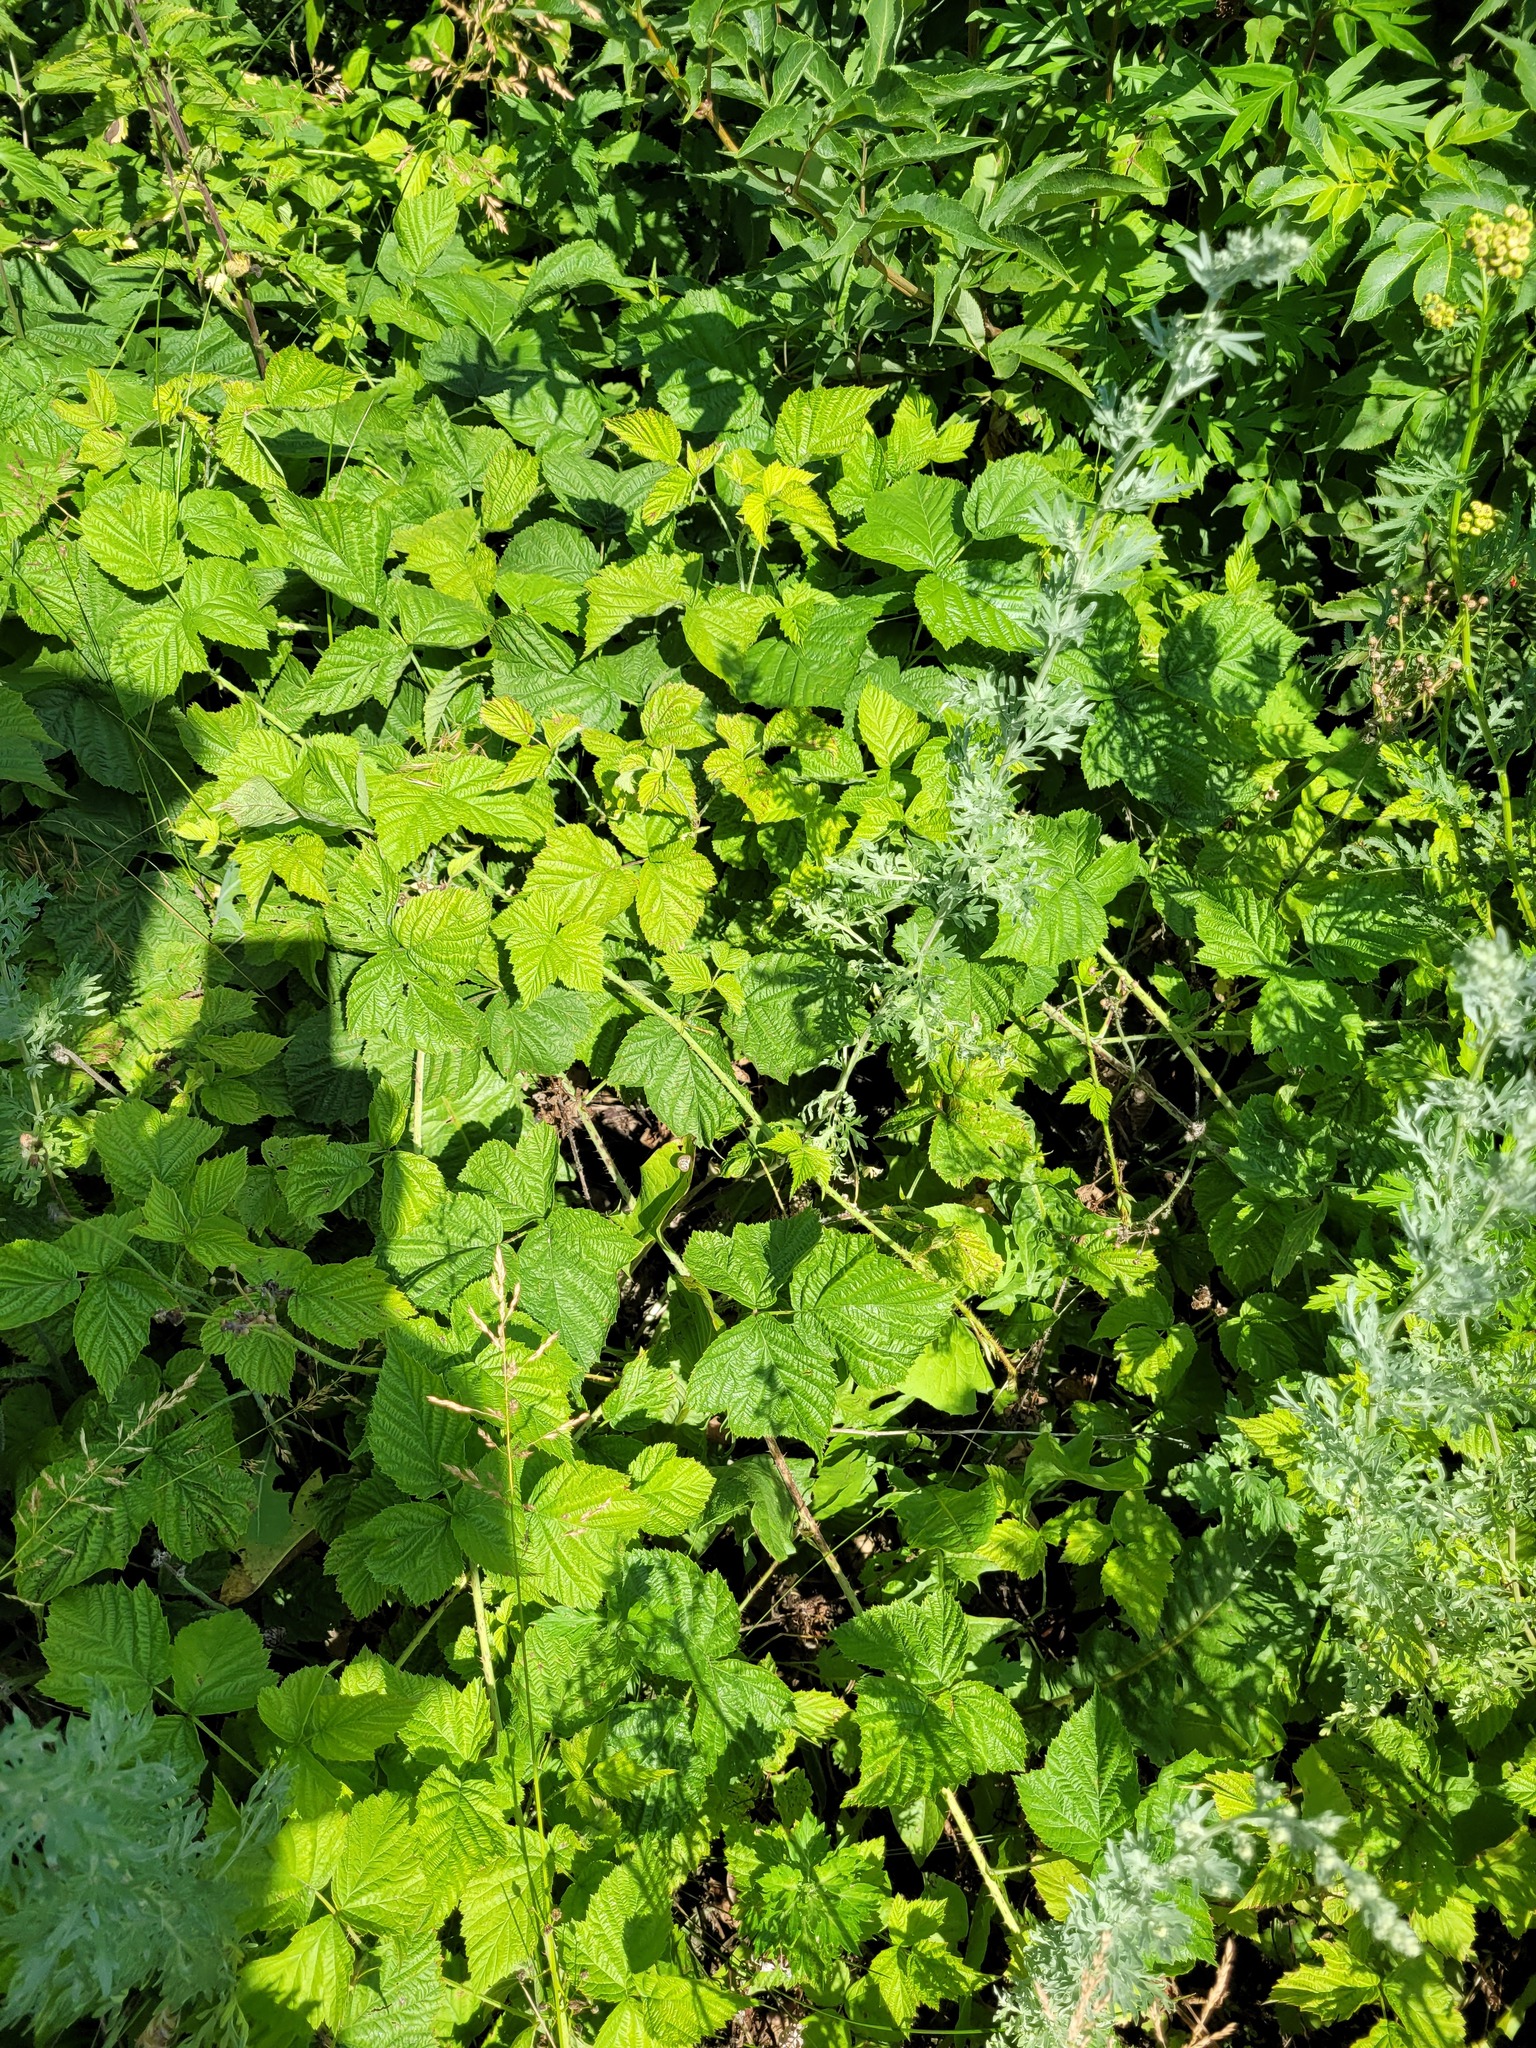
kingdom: Plantae
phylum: Tracheophyta
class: Magnoliopsida
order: Rosales
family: Rosaceae
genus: Rubus
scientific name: Rubus caesius
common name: Dewberry
